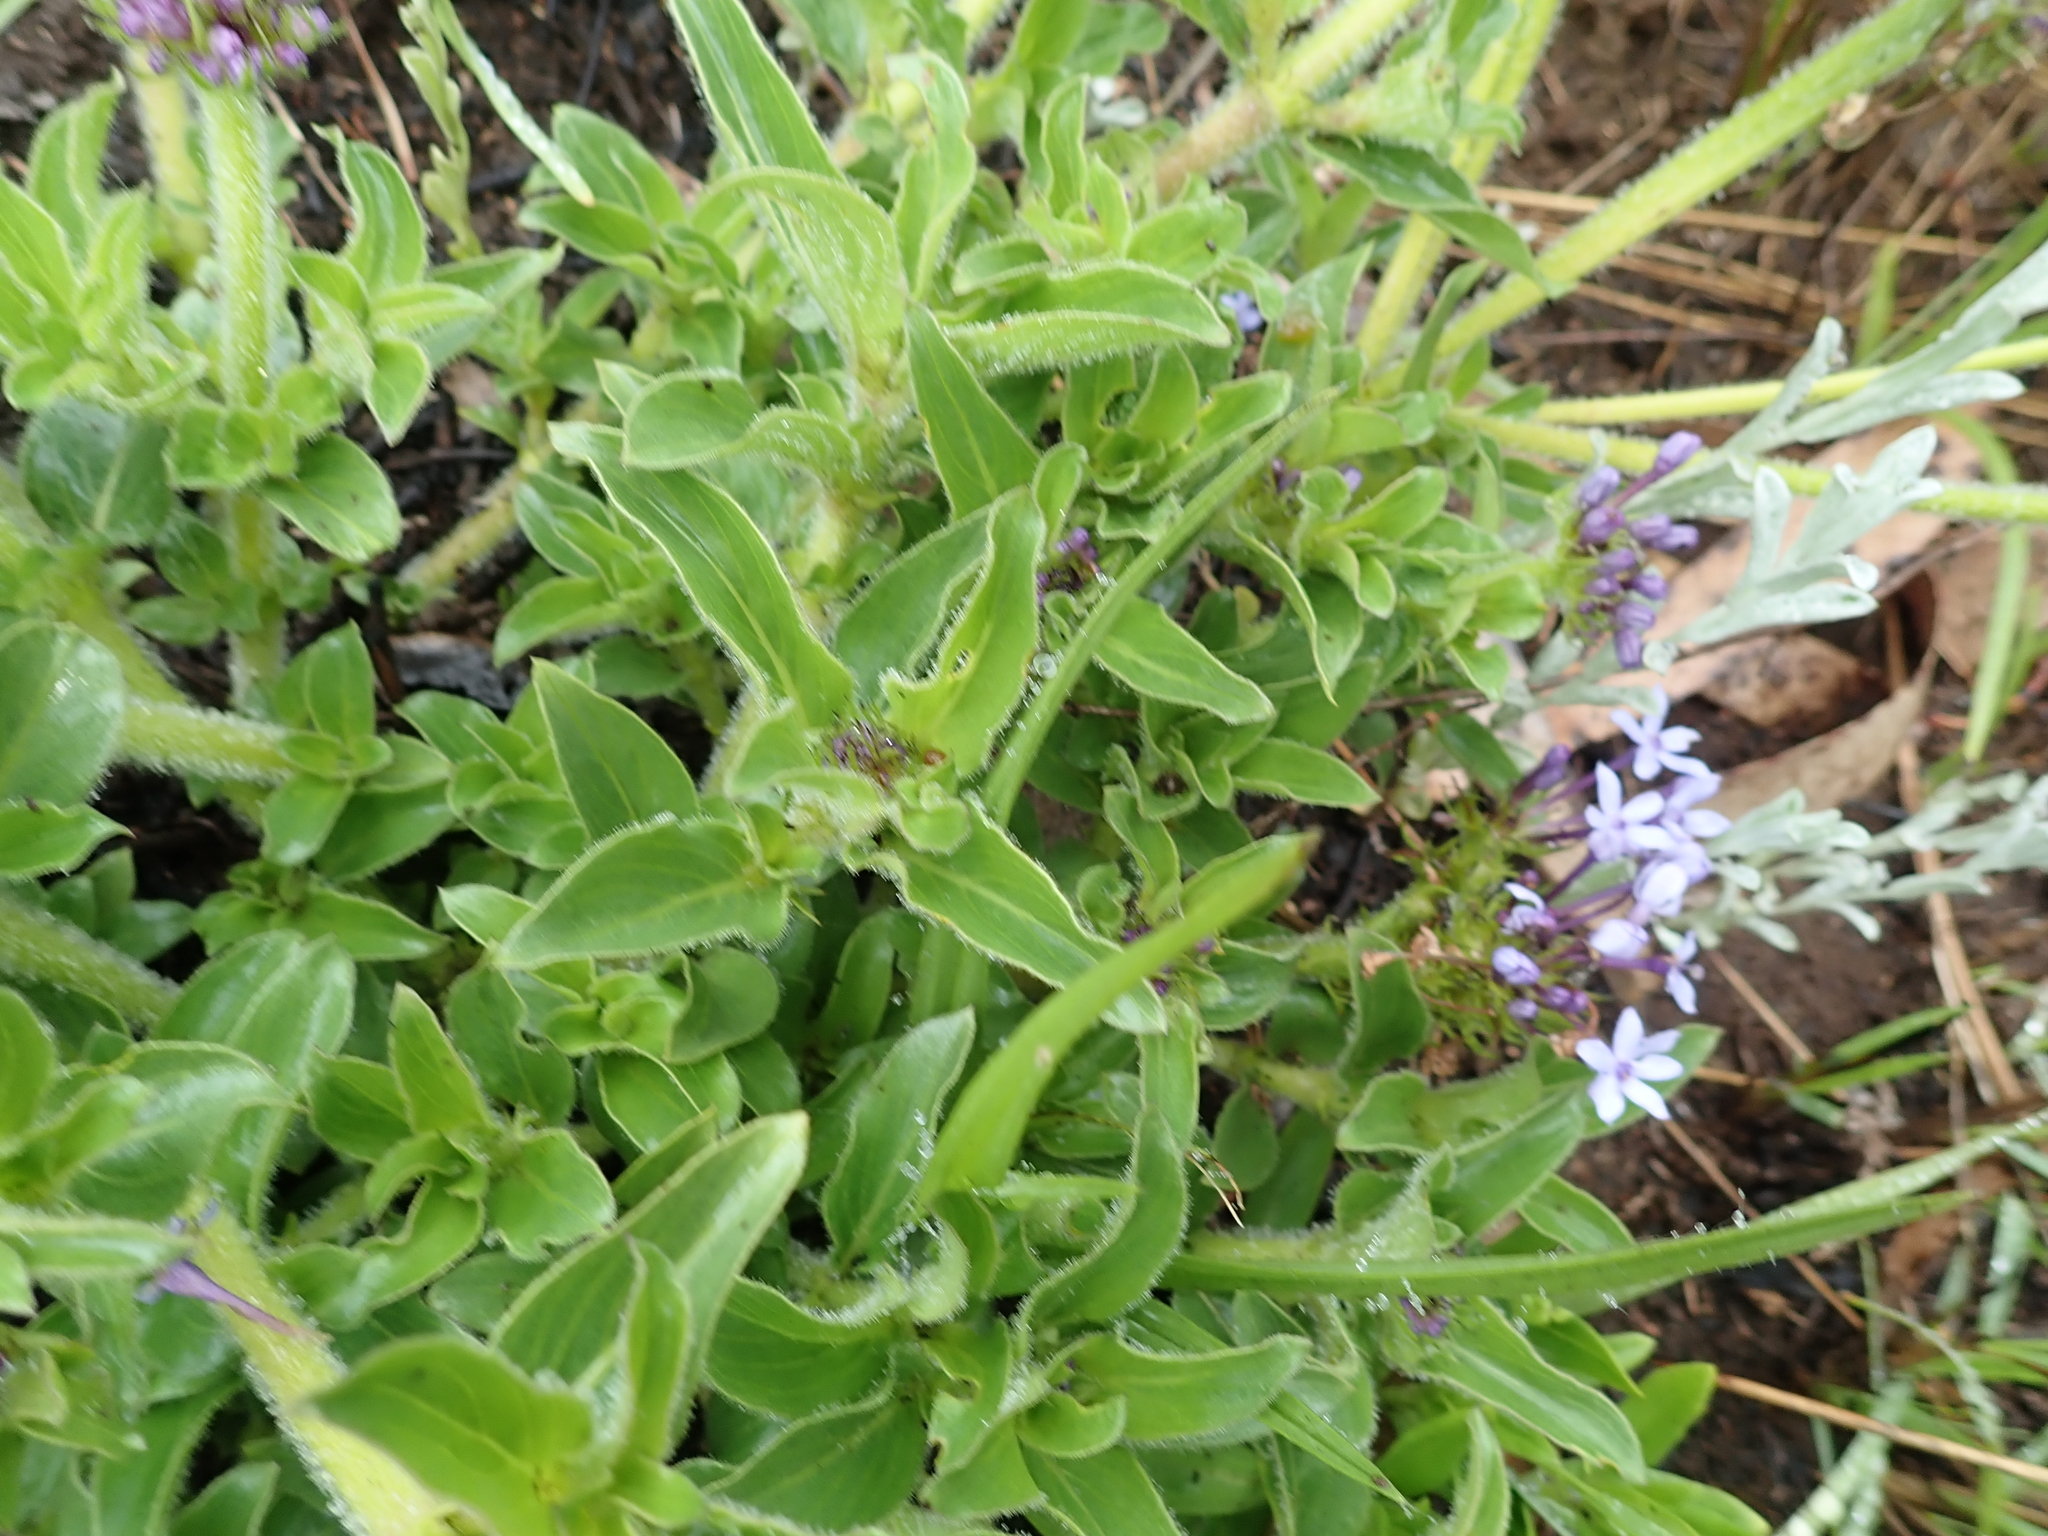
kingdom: Plantae
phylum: Tracheophyta
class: Magnoliopsida
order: Gentianales
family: Rubiaceae
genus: Pentanisia
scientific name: Pentanisia prunelloides
